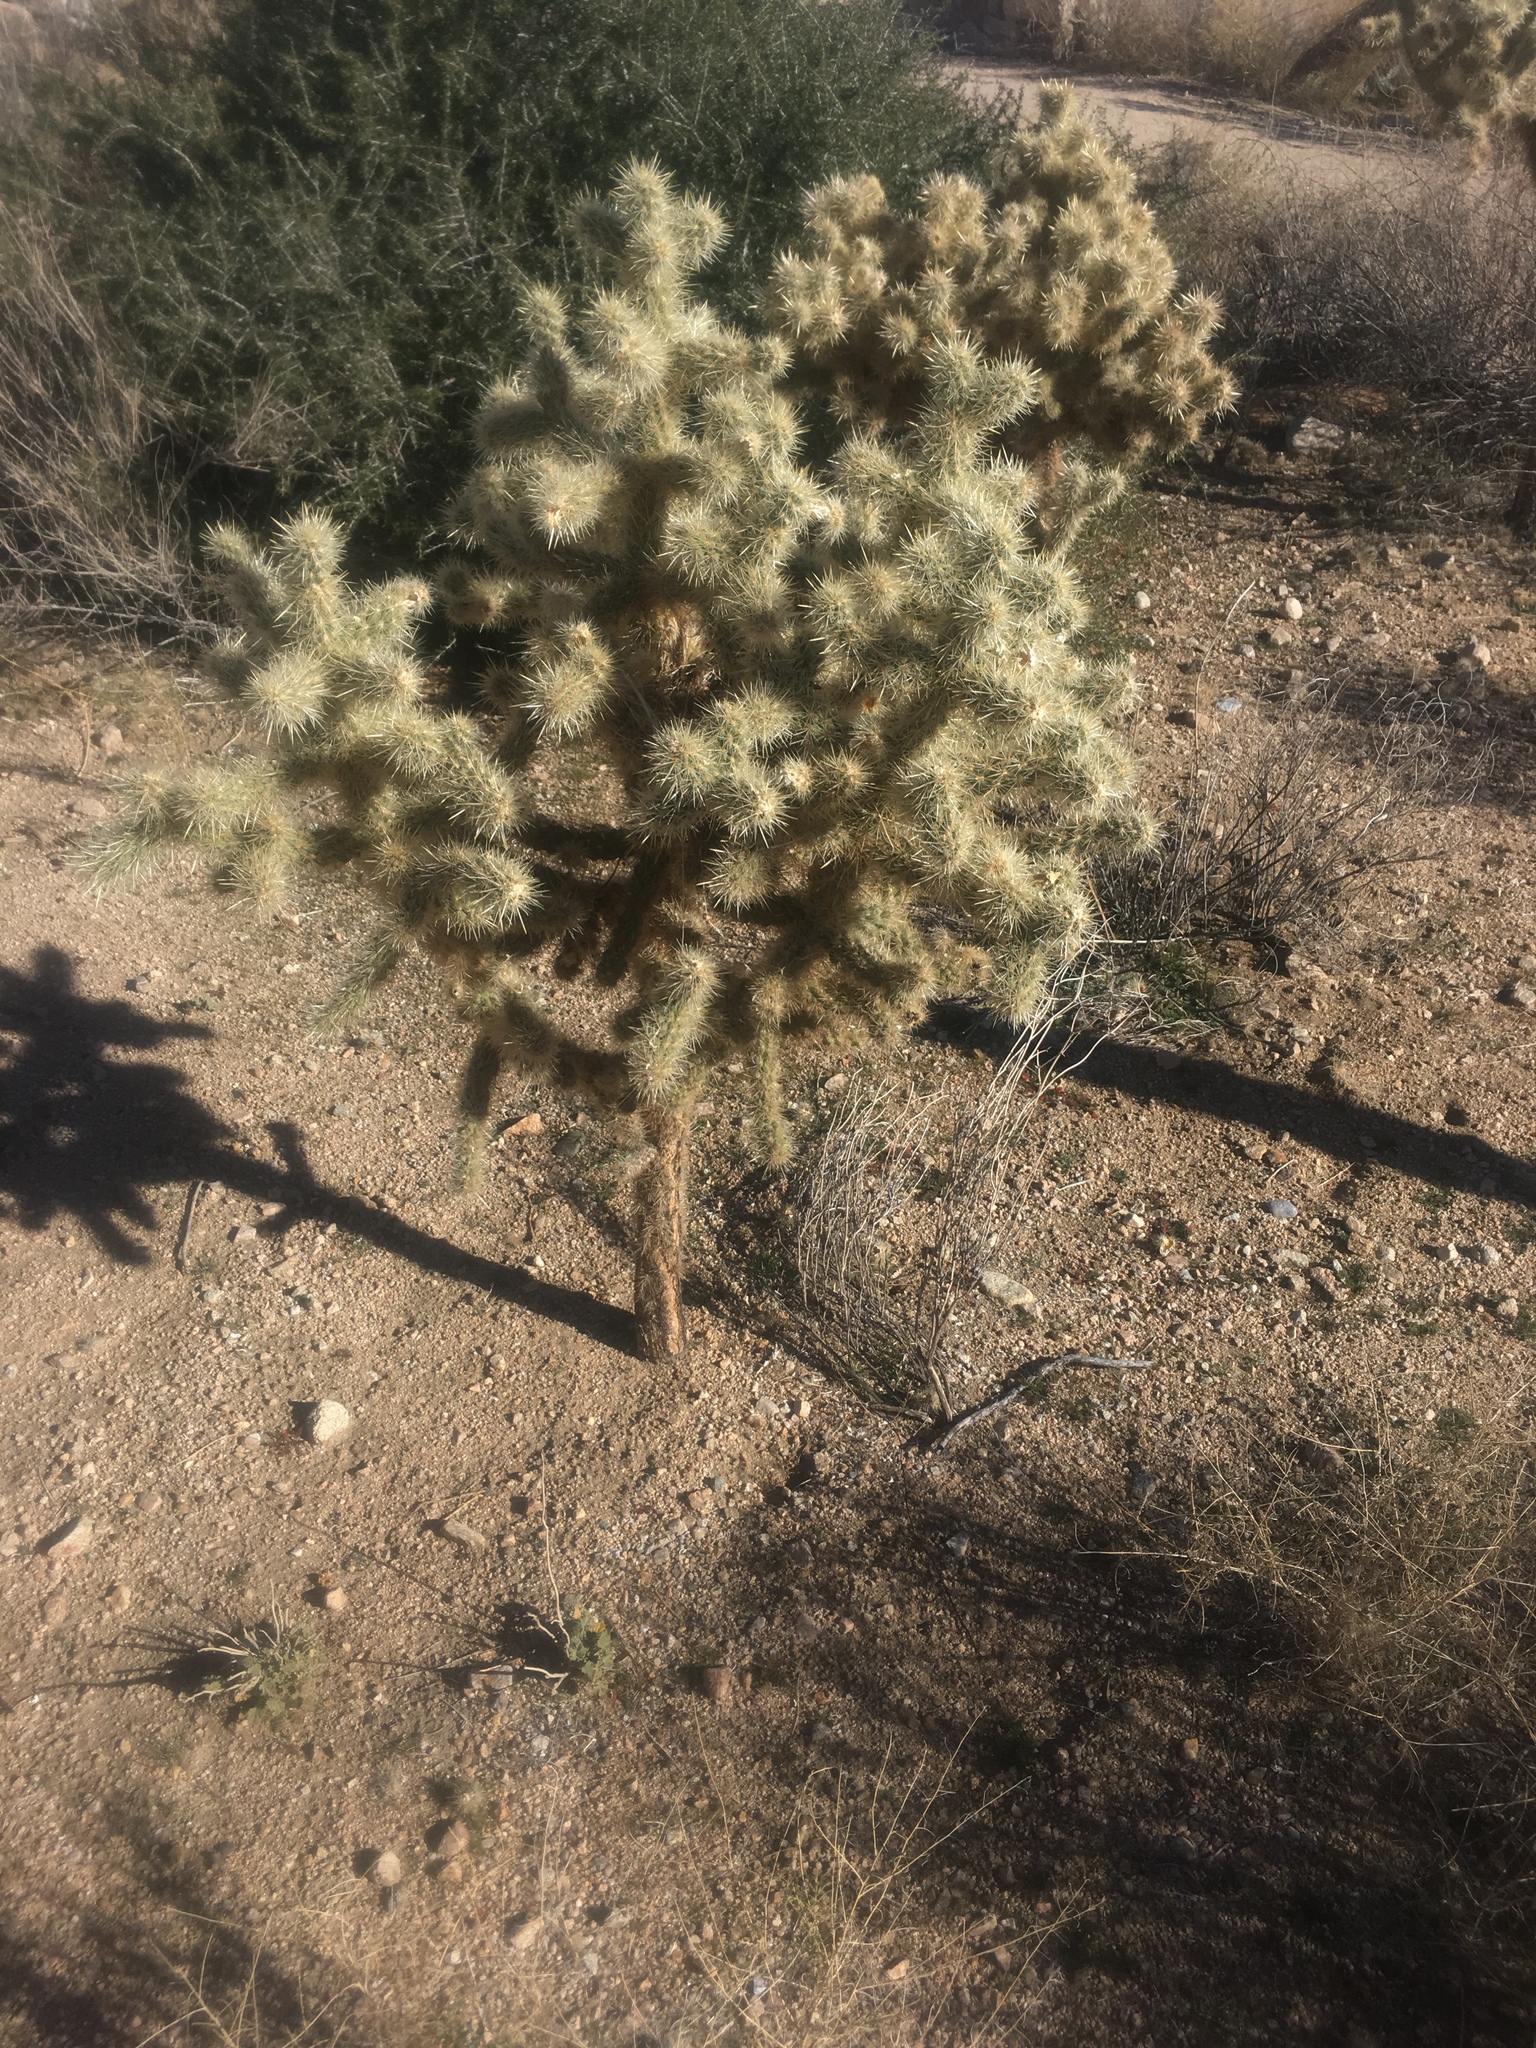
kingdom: Plantae
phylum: Tracheophyta
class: Magnoliopsida
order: Caryophyllales
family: Cactaceae
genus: Cylindropuntia
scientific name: Cylindropuntia echinocarpa
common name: Ground cholla
